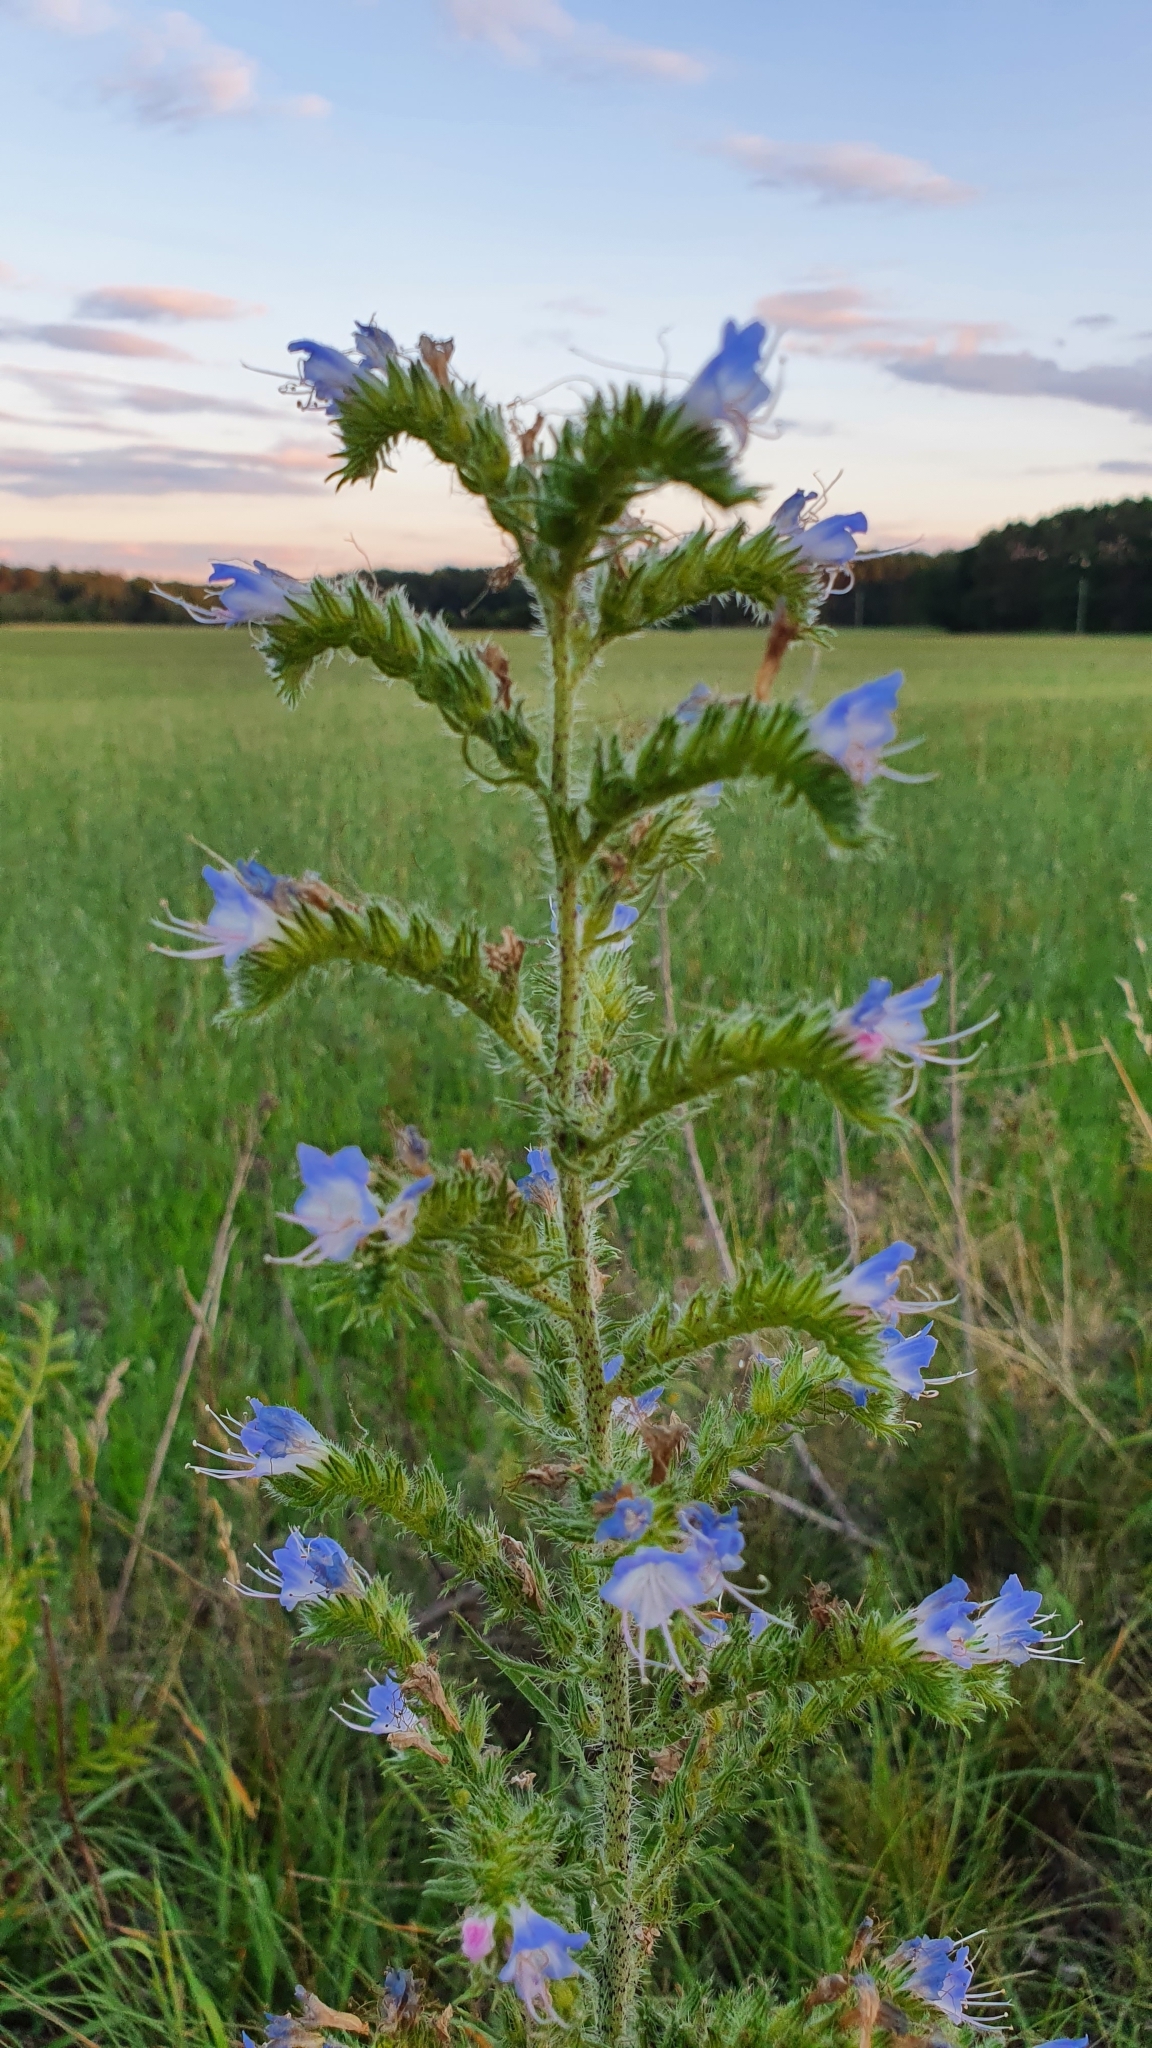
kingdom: Plantae
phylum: Tracheophyta
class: Magnoliopsida
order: Boraginales
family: Boraginaceae
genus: Echium
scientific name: Echium vulgare
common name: Common viper's bugloss
